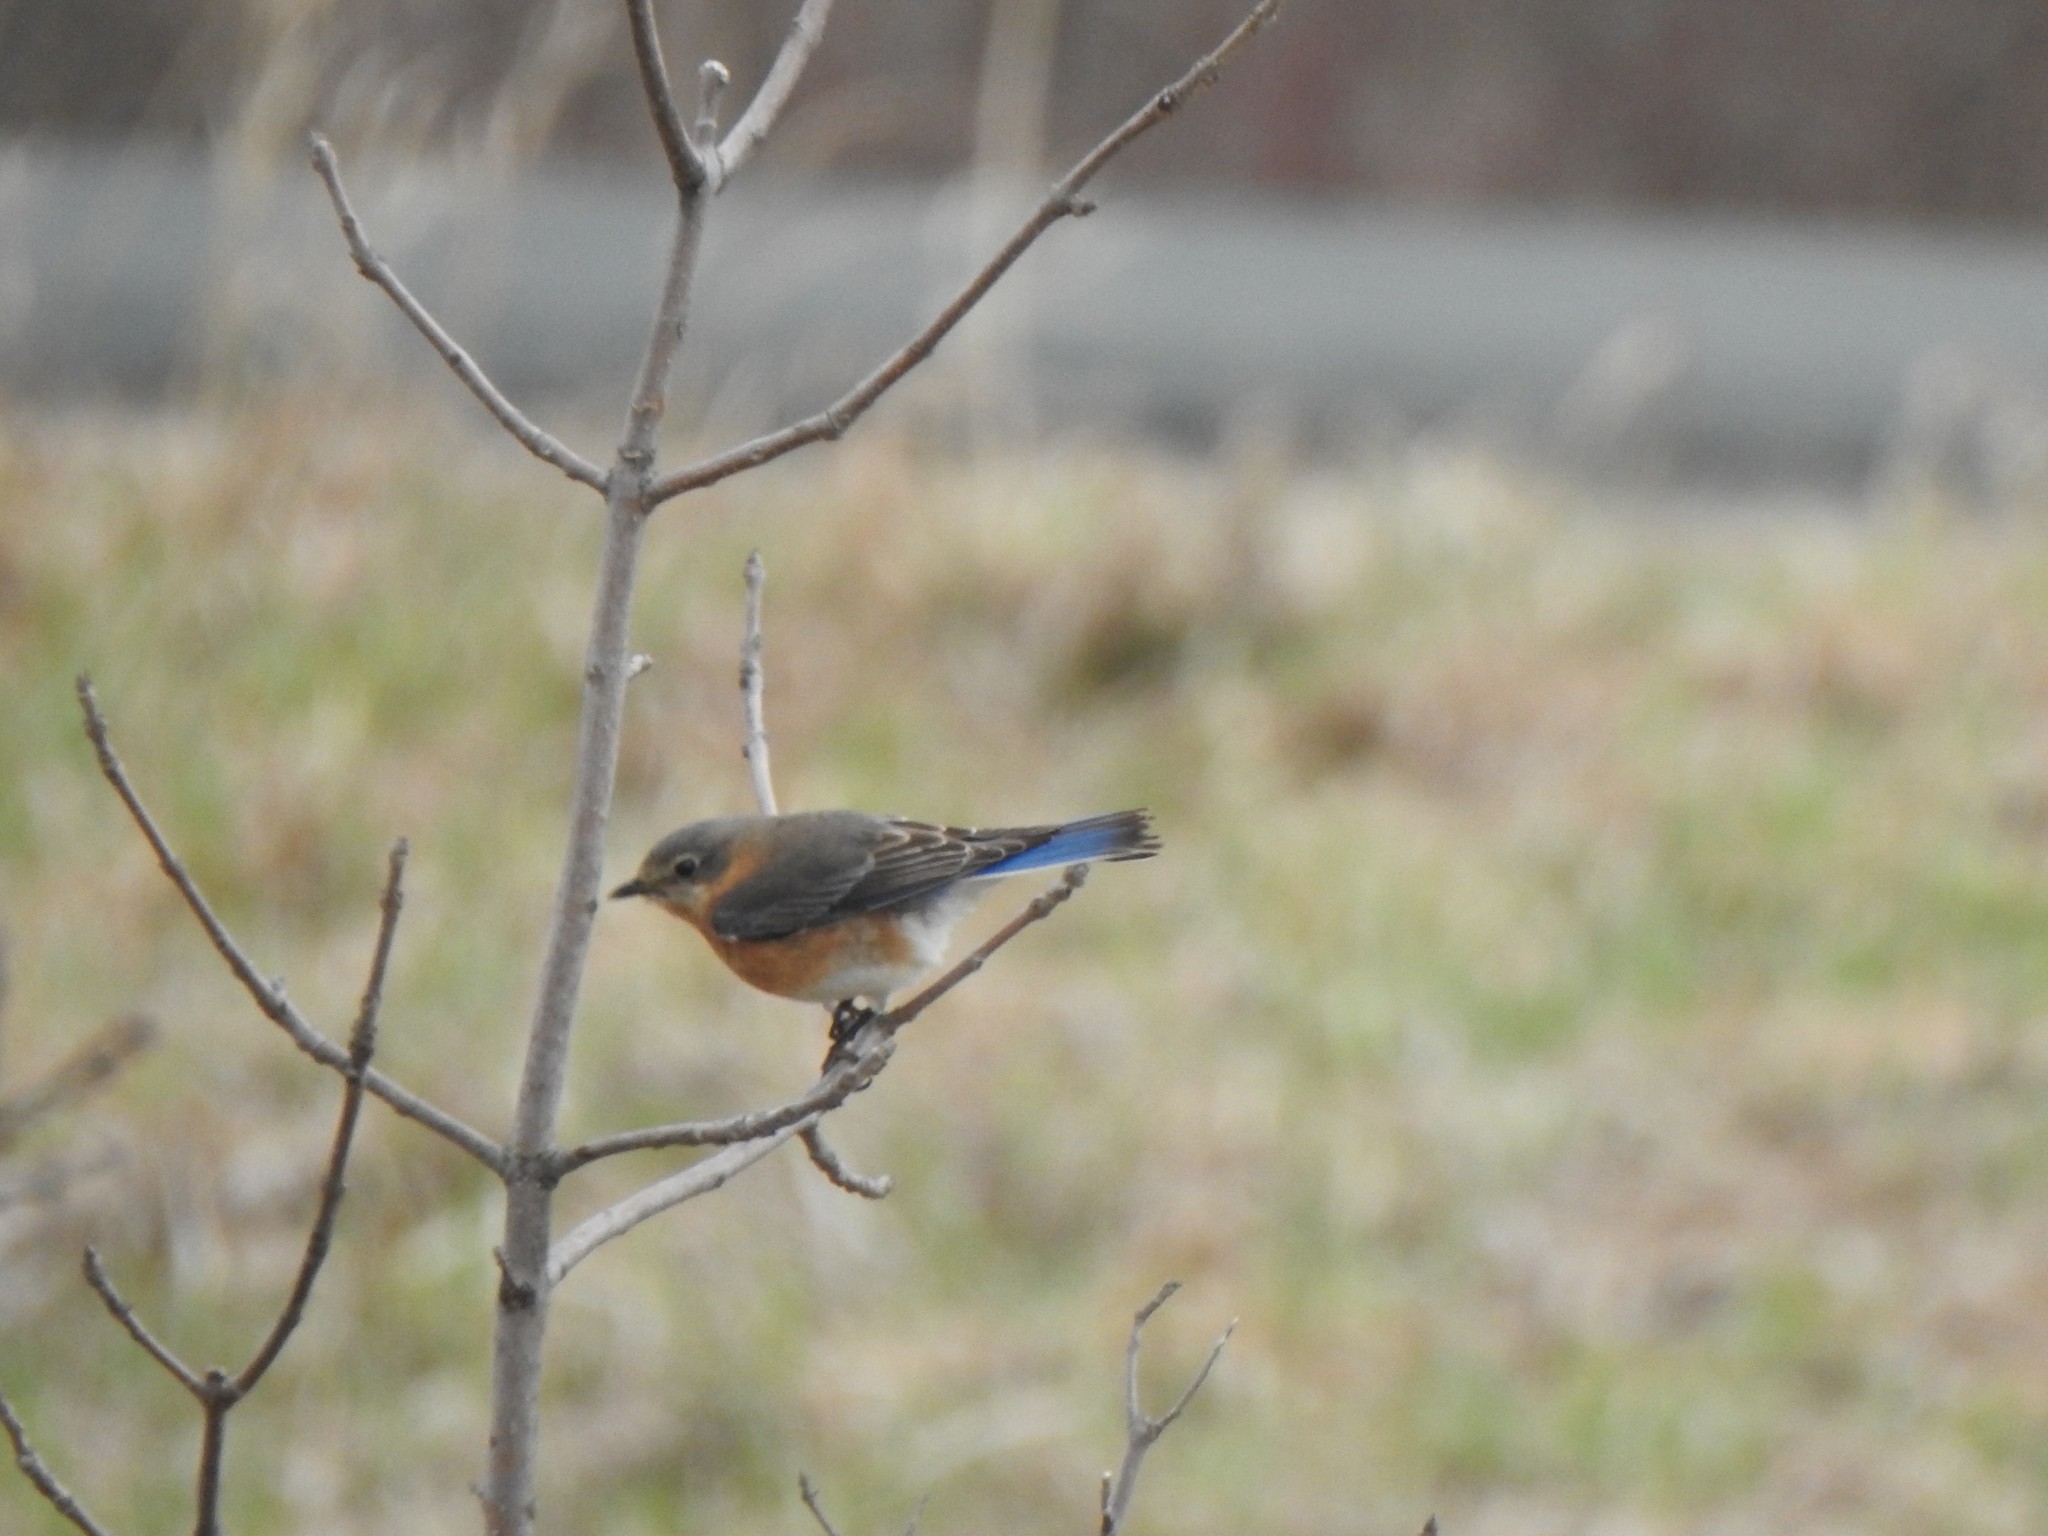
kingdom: Animalia
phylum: Chordata
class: Aves
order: Passeriformes
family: Turdidae
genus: Sialia
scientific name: Sialia sialis
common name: Eastern bluebird
